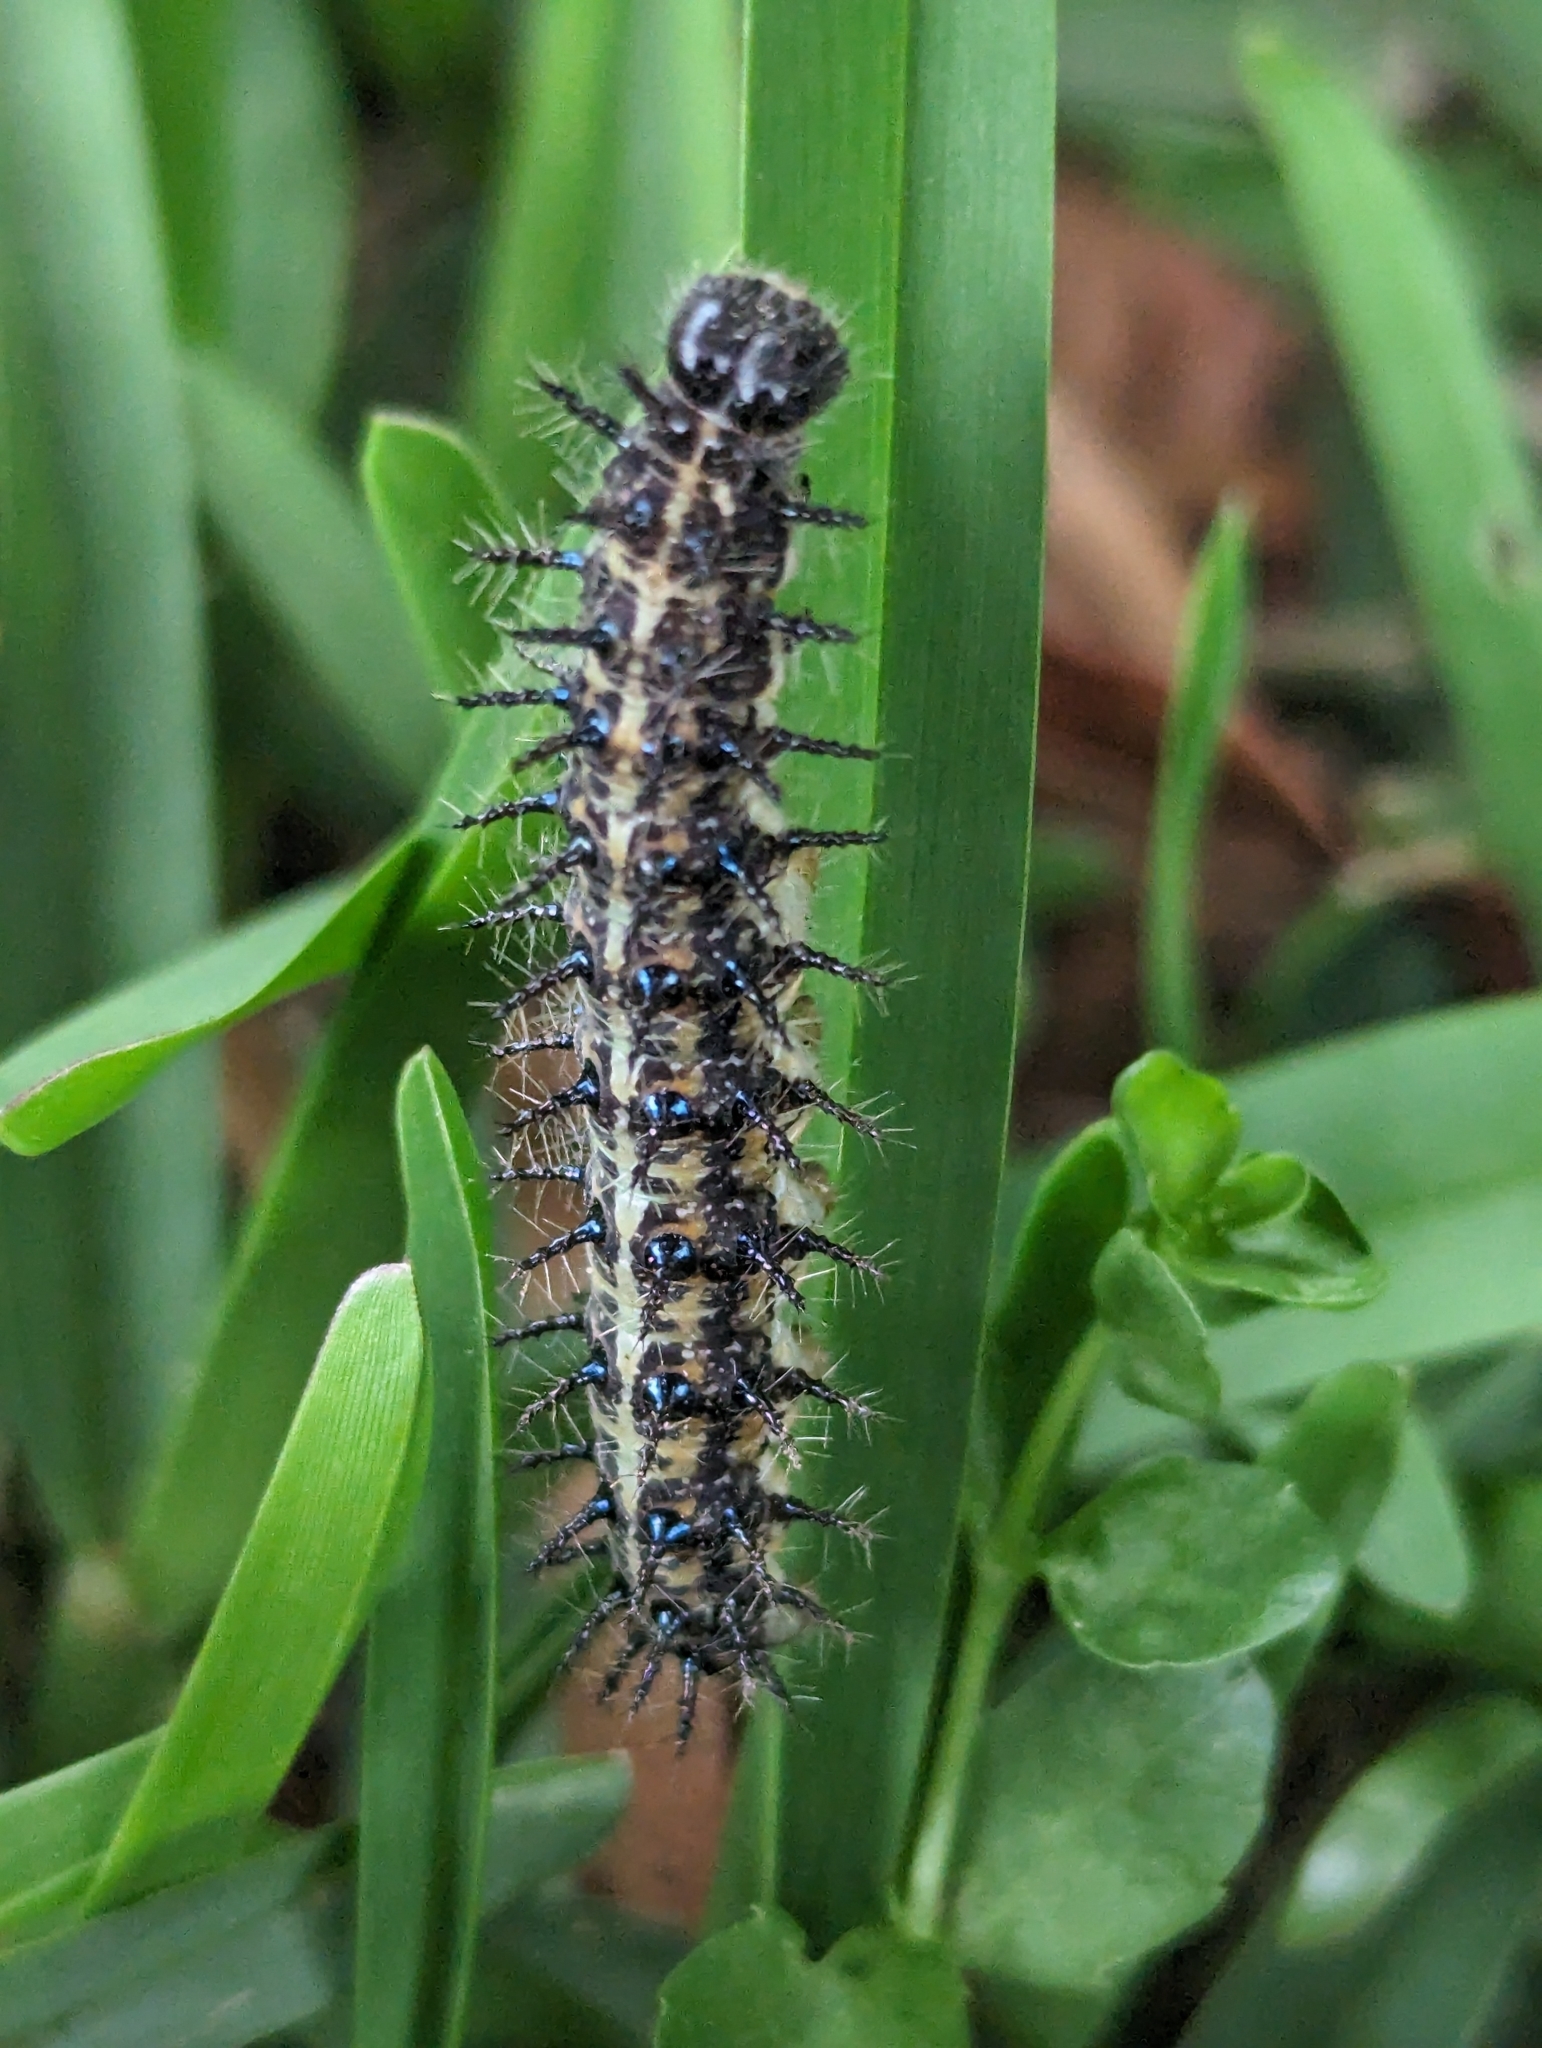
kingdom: Animalia
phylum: Arthropoda
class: Insecta
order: Lepidoptera
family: Nymphalidae
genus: Acraea
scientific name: Acraea horta
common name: Garden acraea
